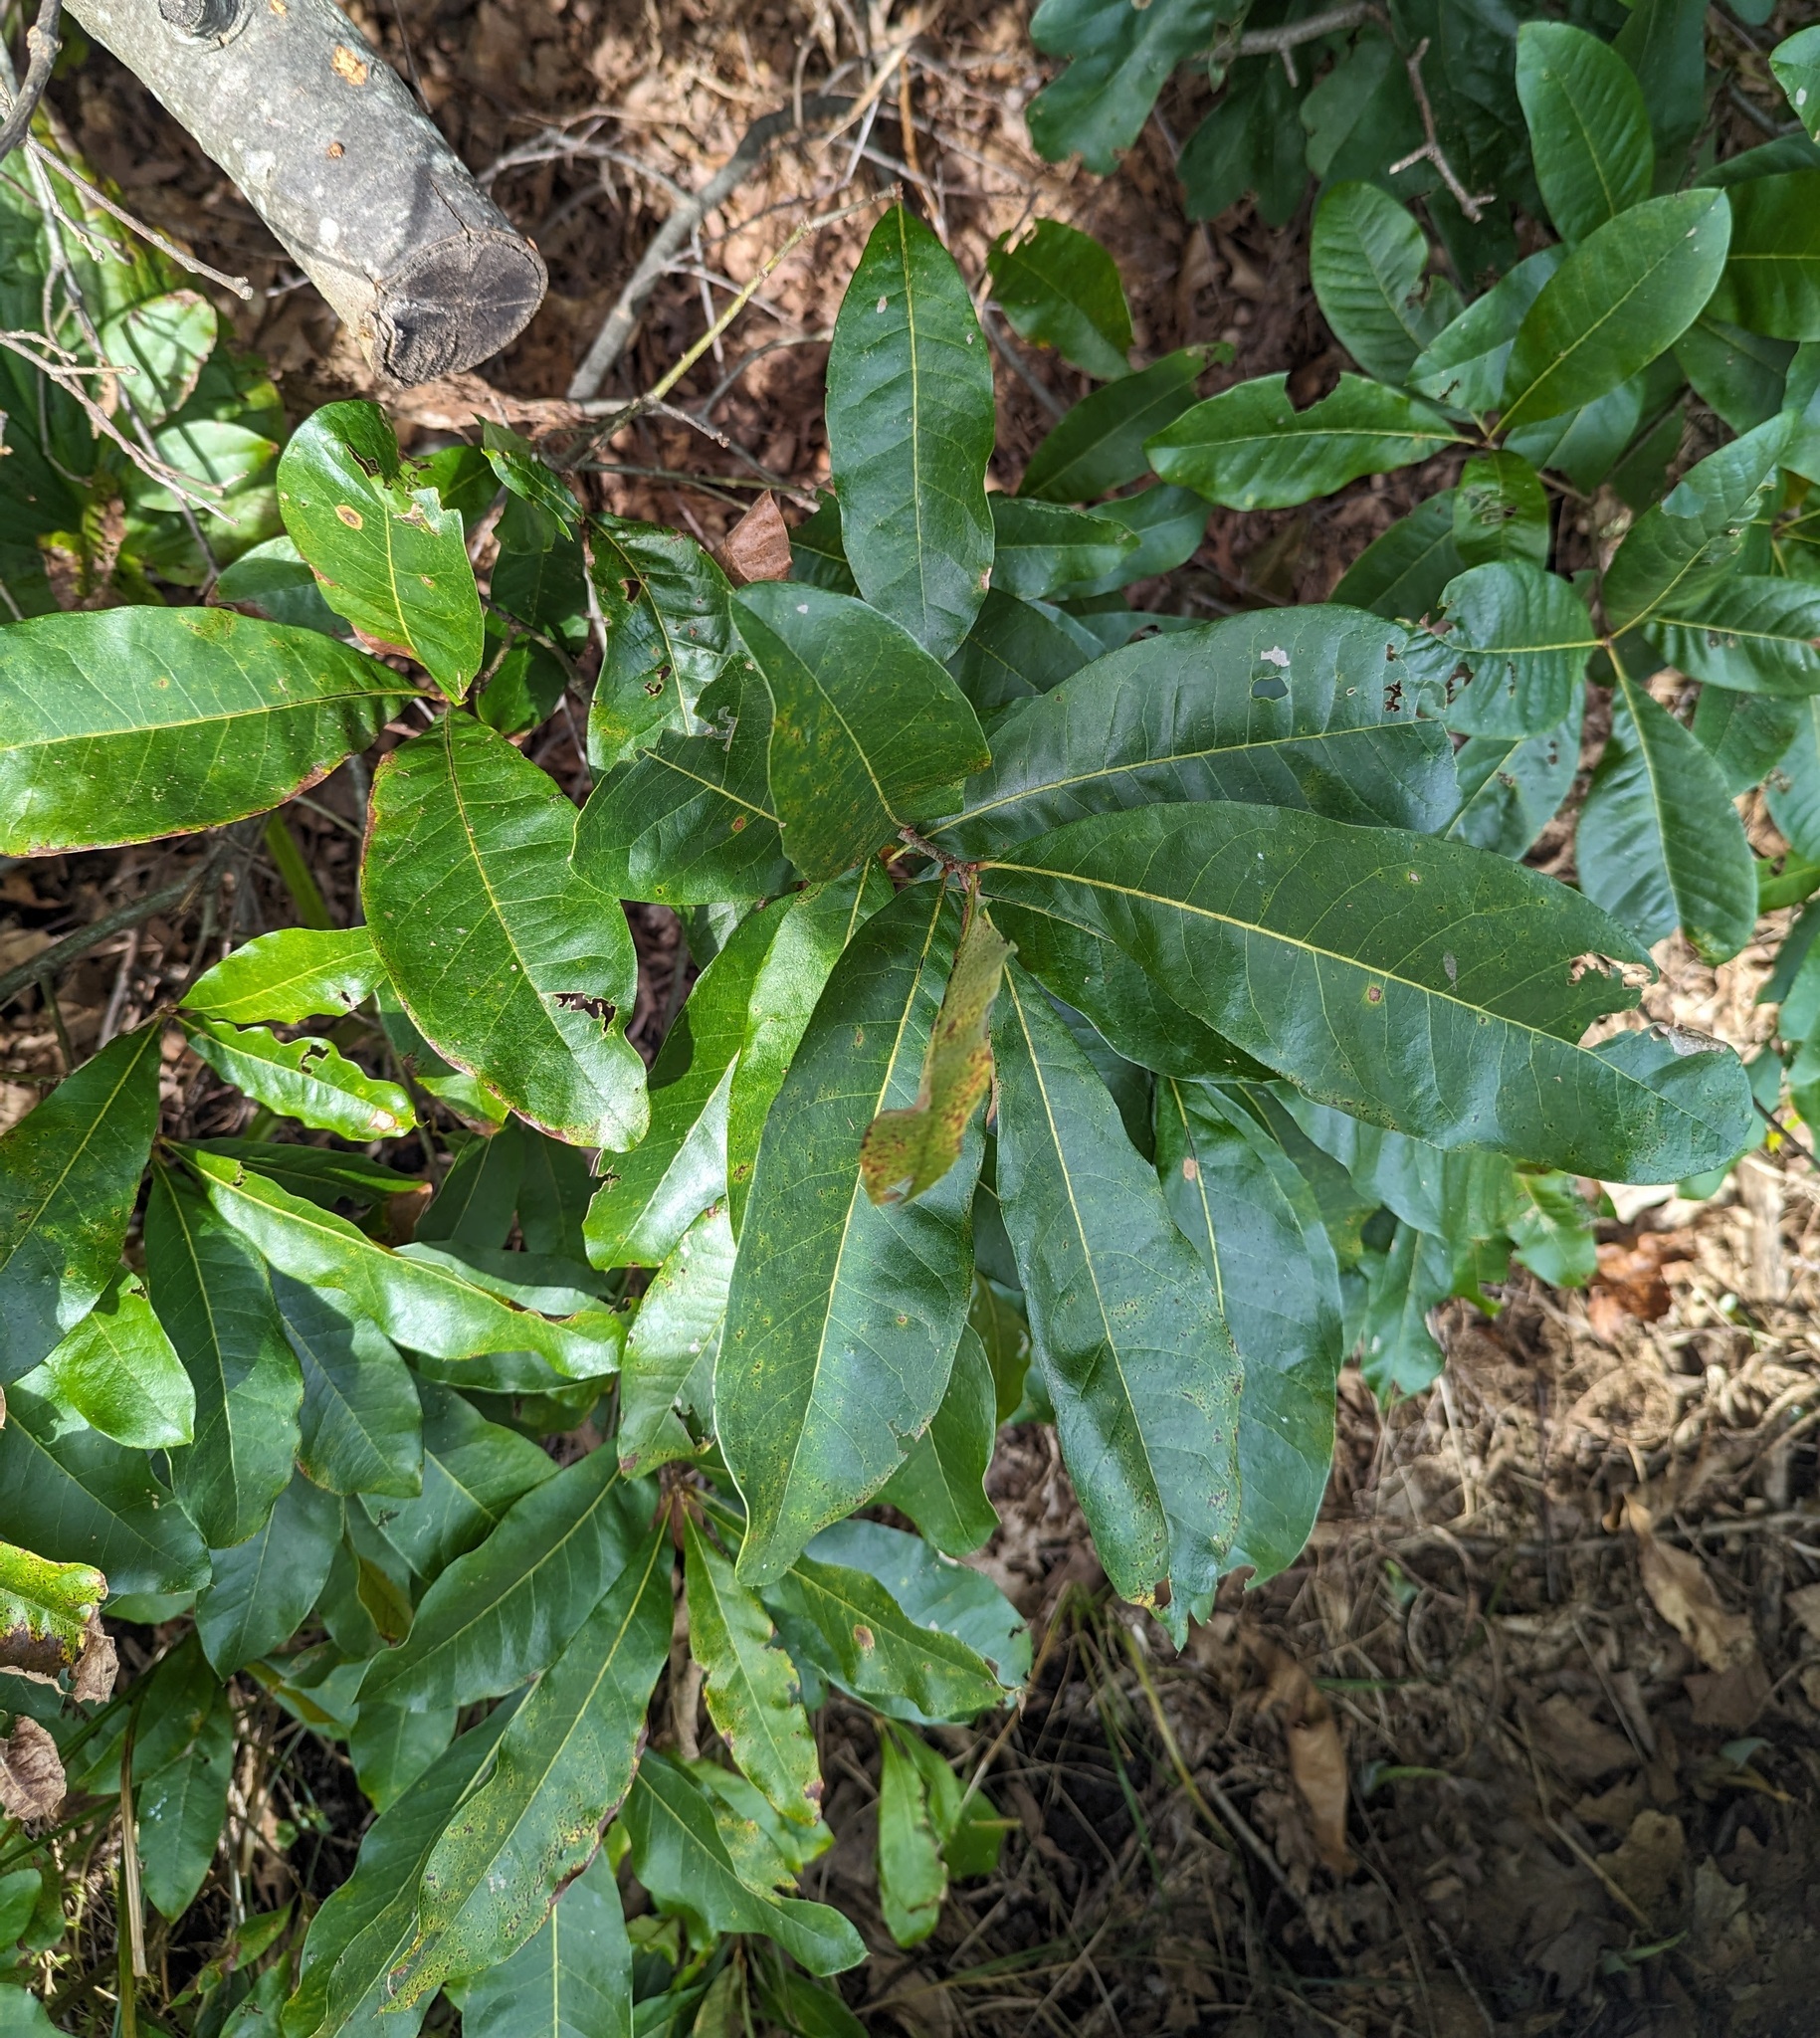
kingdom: Plantae
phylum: Tracheophyta
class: Magnoliopsida
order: Fagales
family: Fagaceae
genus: Quercus
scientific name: Quercus imbricaria
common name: Shingle oak
